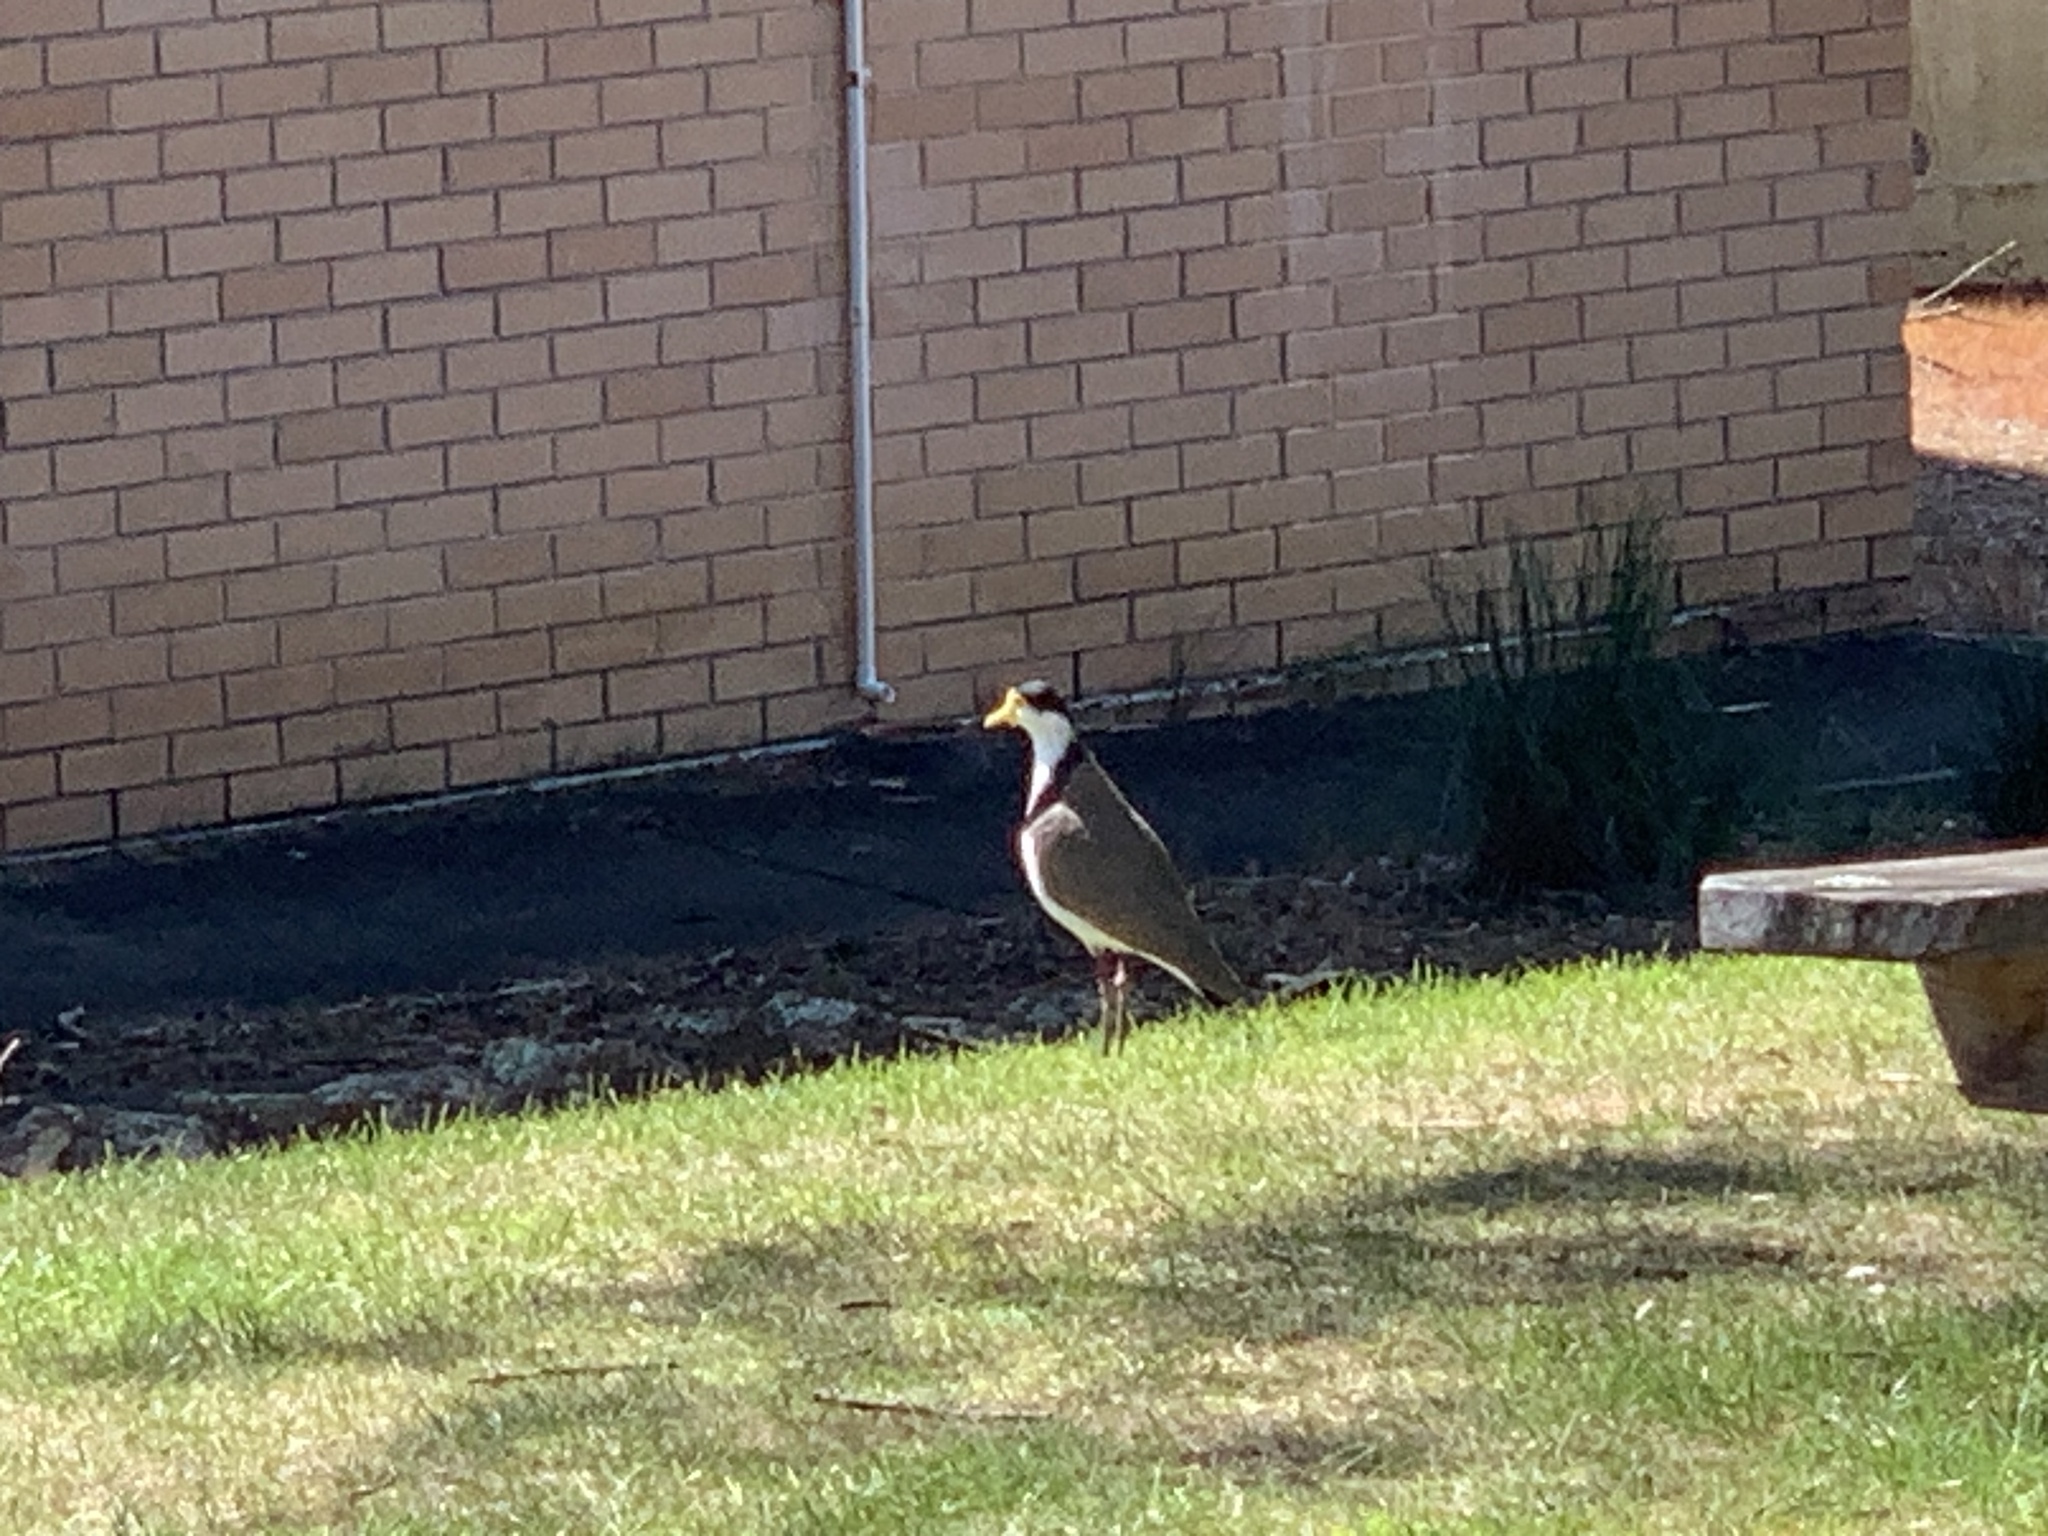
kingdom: Animalia
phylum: Chordata
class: Aves
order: Charadriiformes
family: Charadriidae
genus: Vanellus
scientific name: Vanellus miles
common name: Masked lapwing
